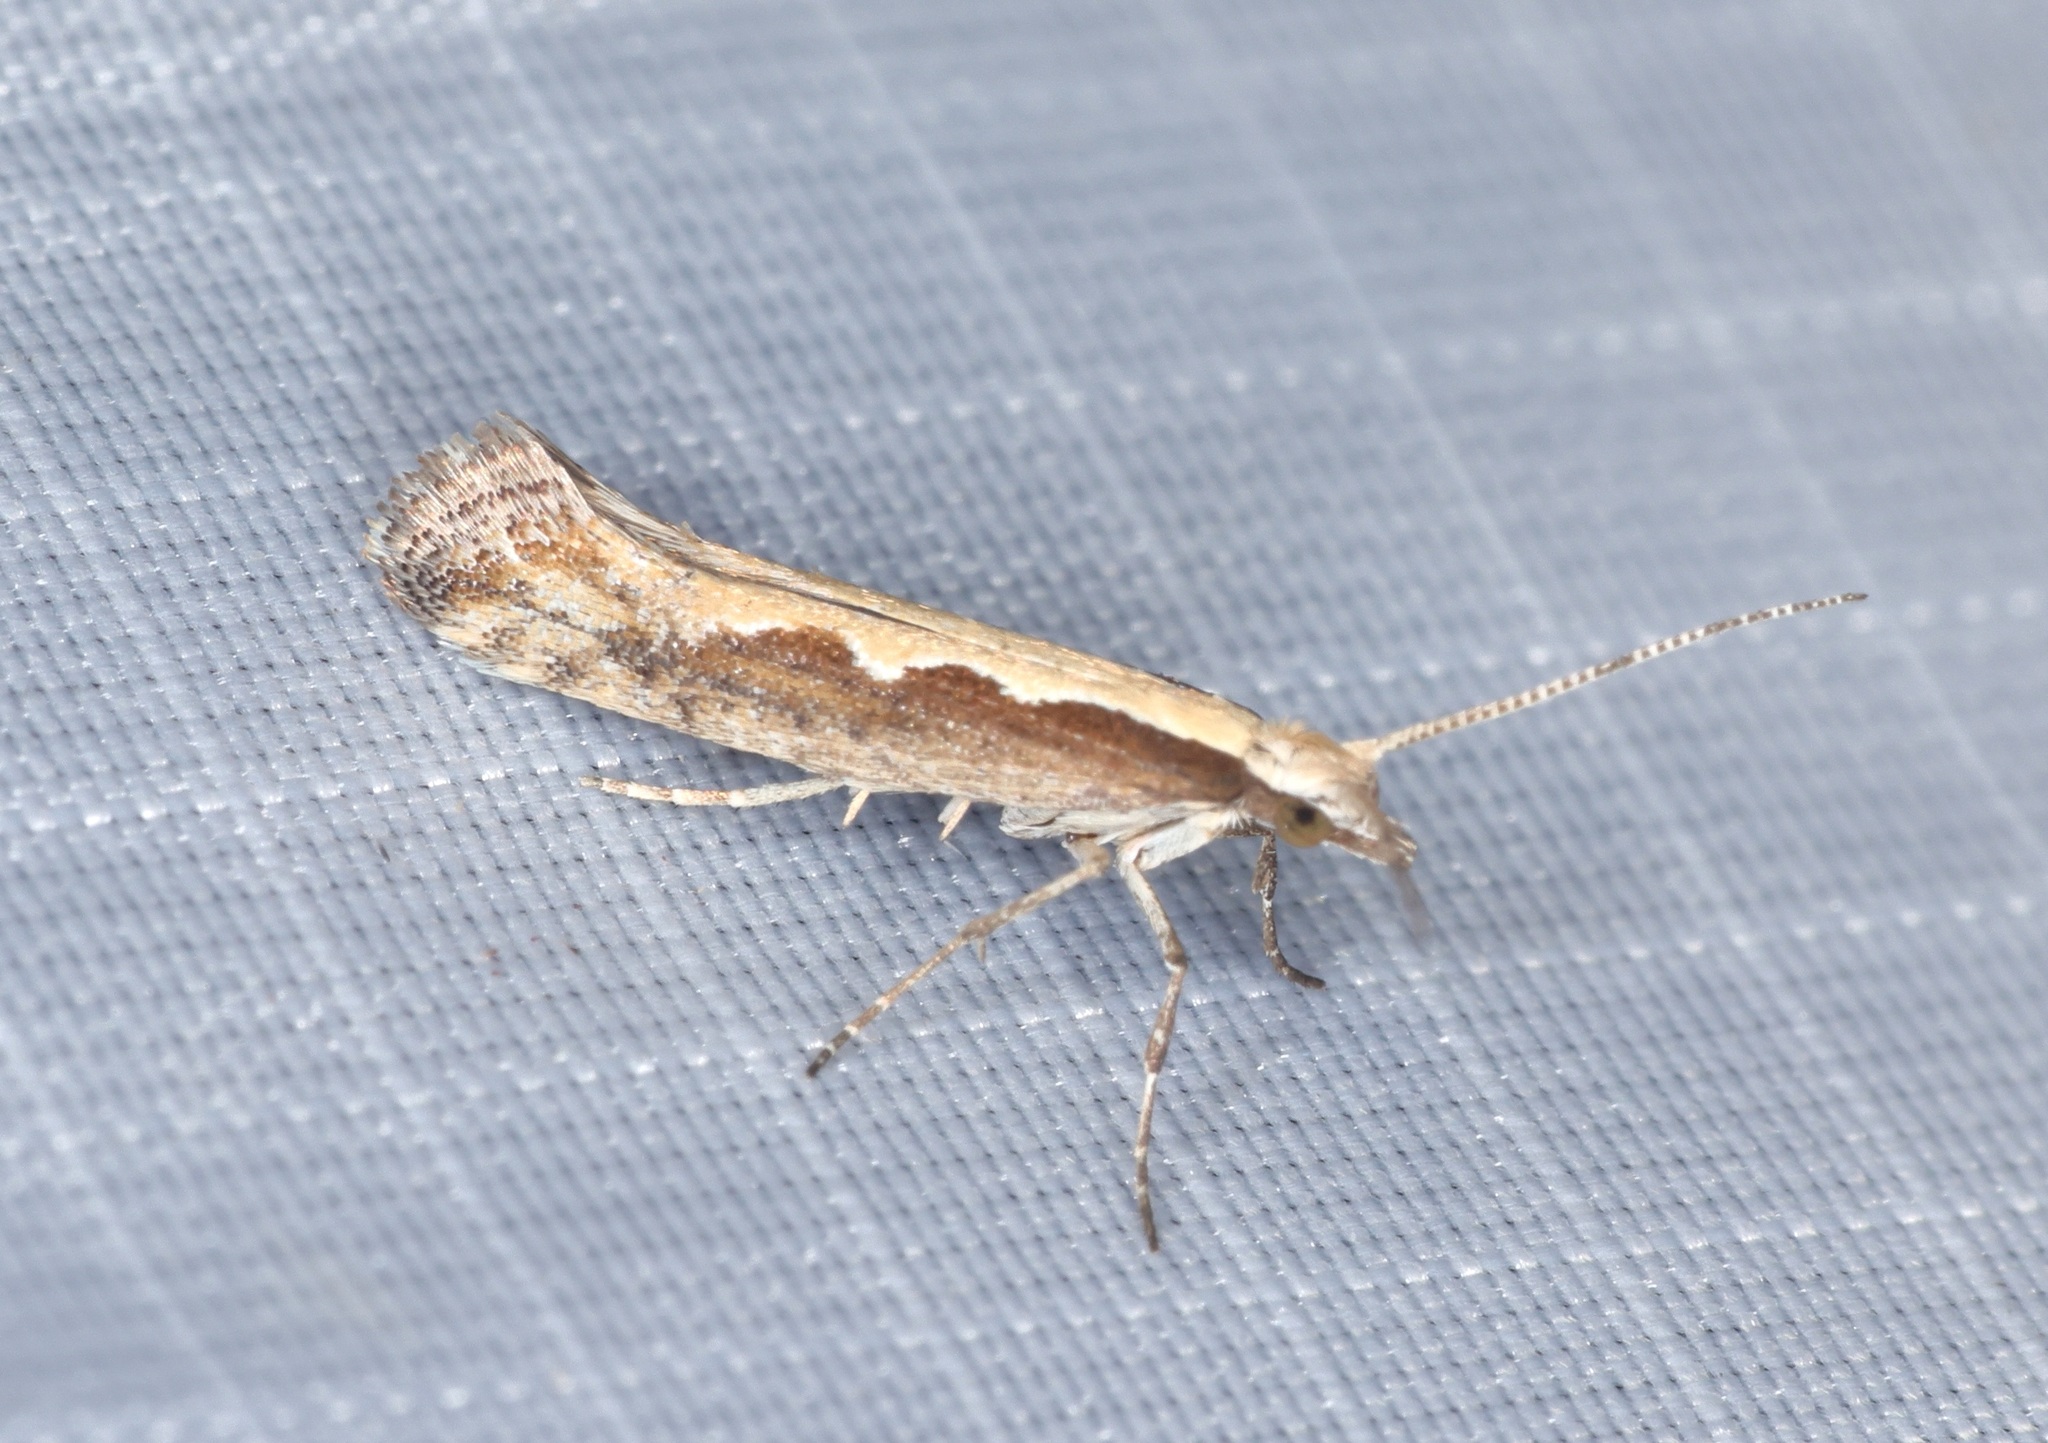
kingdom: Animalia
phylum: Arthropoda
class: Insecta
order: Lepidoptera
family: Plutellidae
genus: Plutella
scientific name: Plutella xylostella
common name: Diamond-back moth
